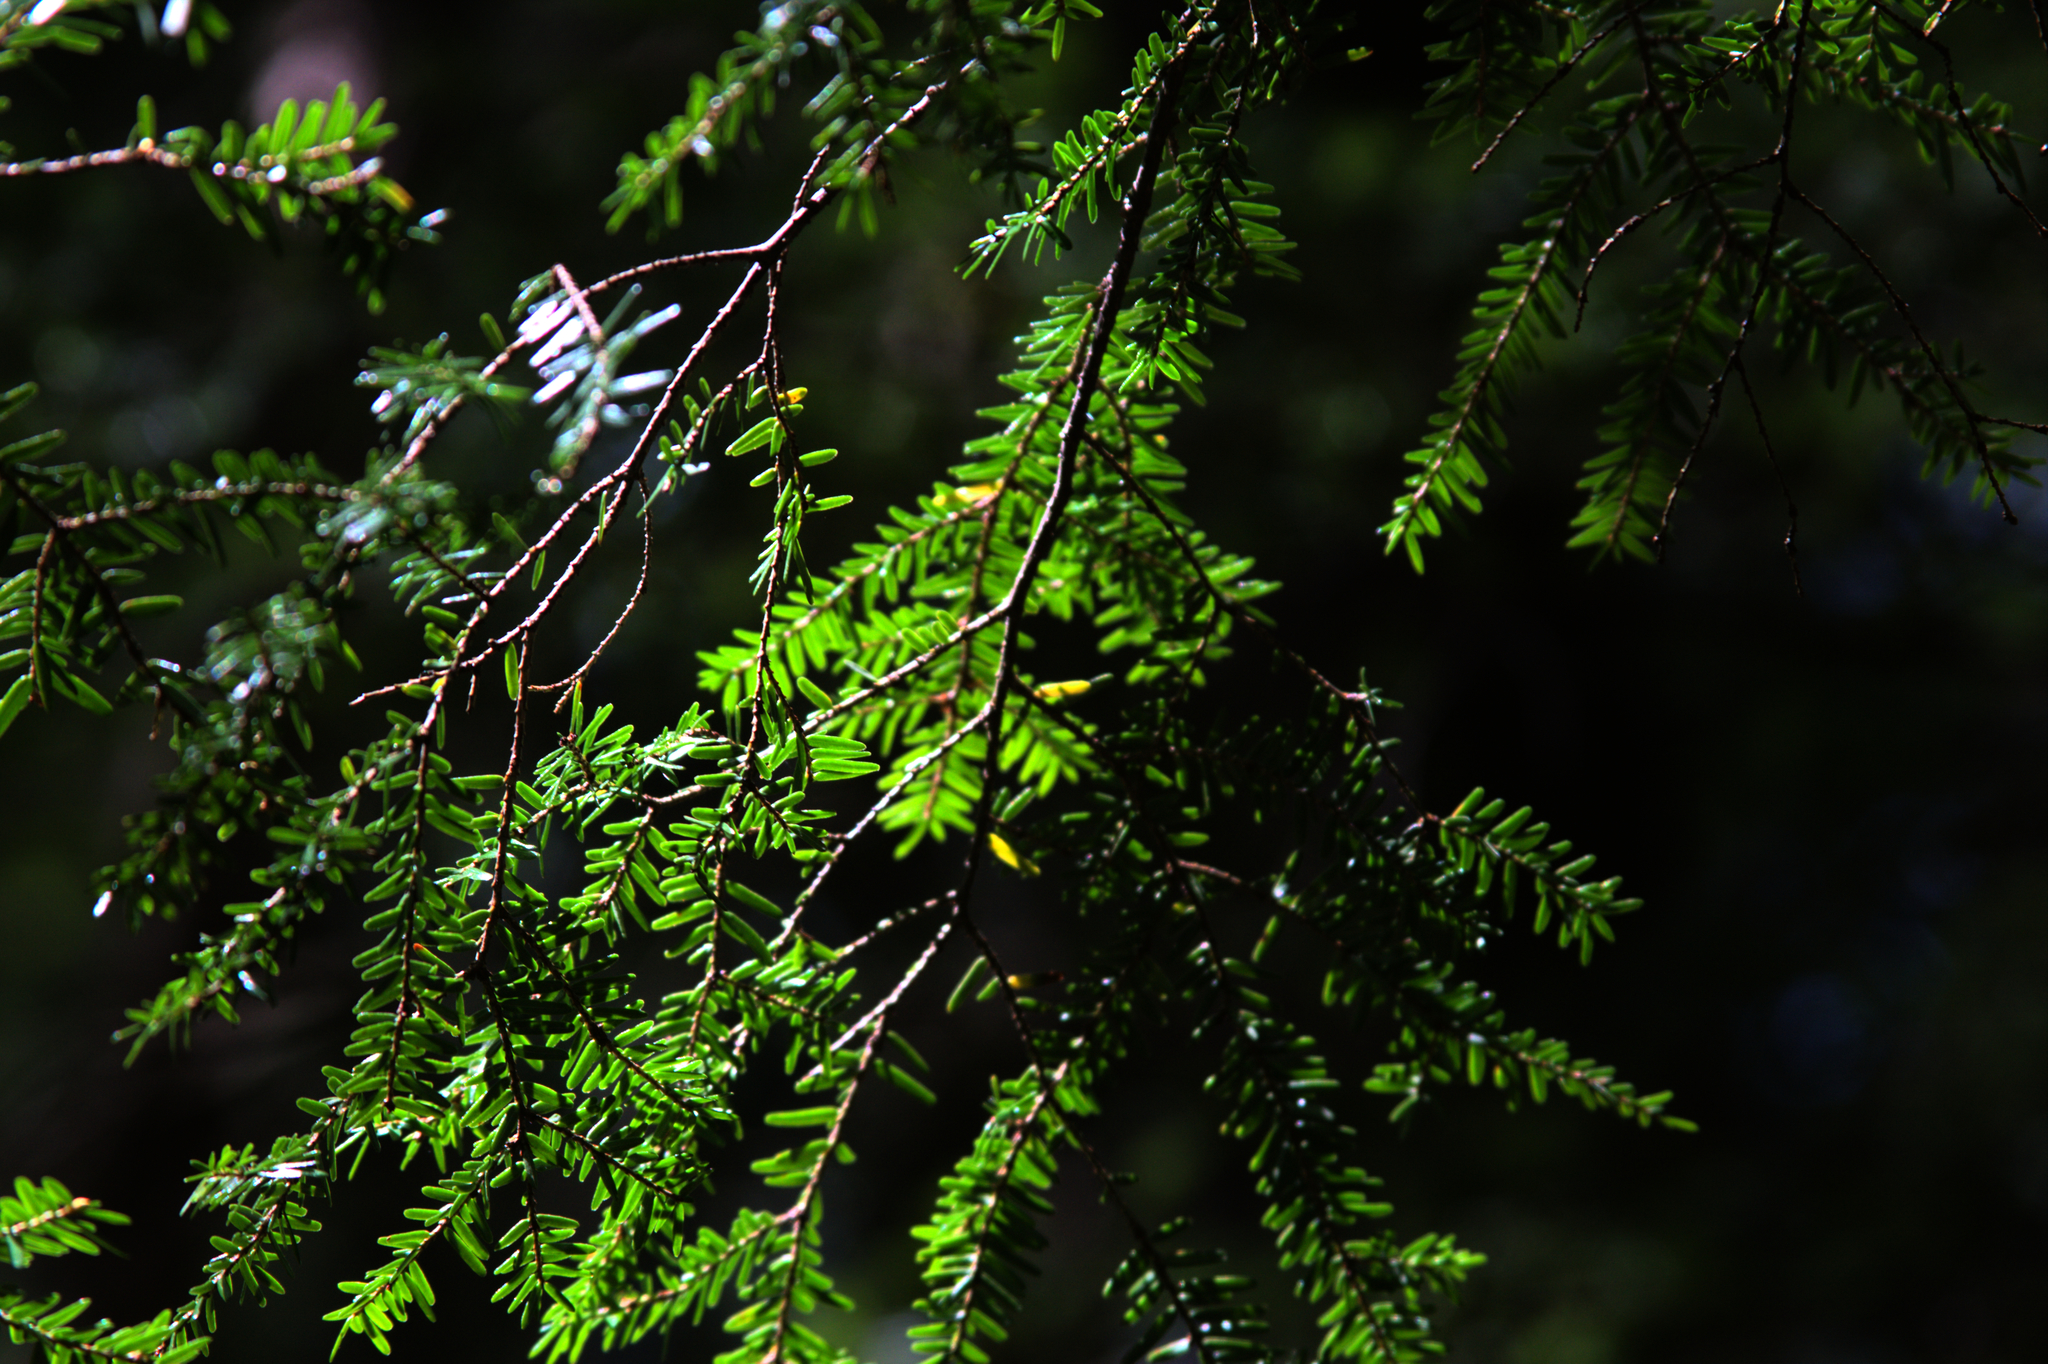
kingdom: Plantae
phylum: Tracheophyta
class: Pinopsida
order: Pinales
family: Pinaceae
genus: Tsuga
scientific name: Tsuga canadensis
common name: Eastern hemlock
